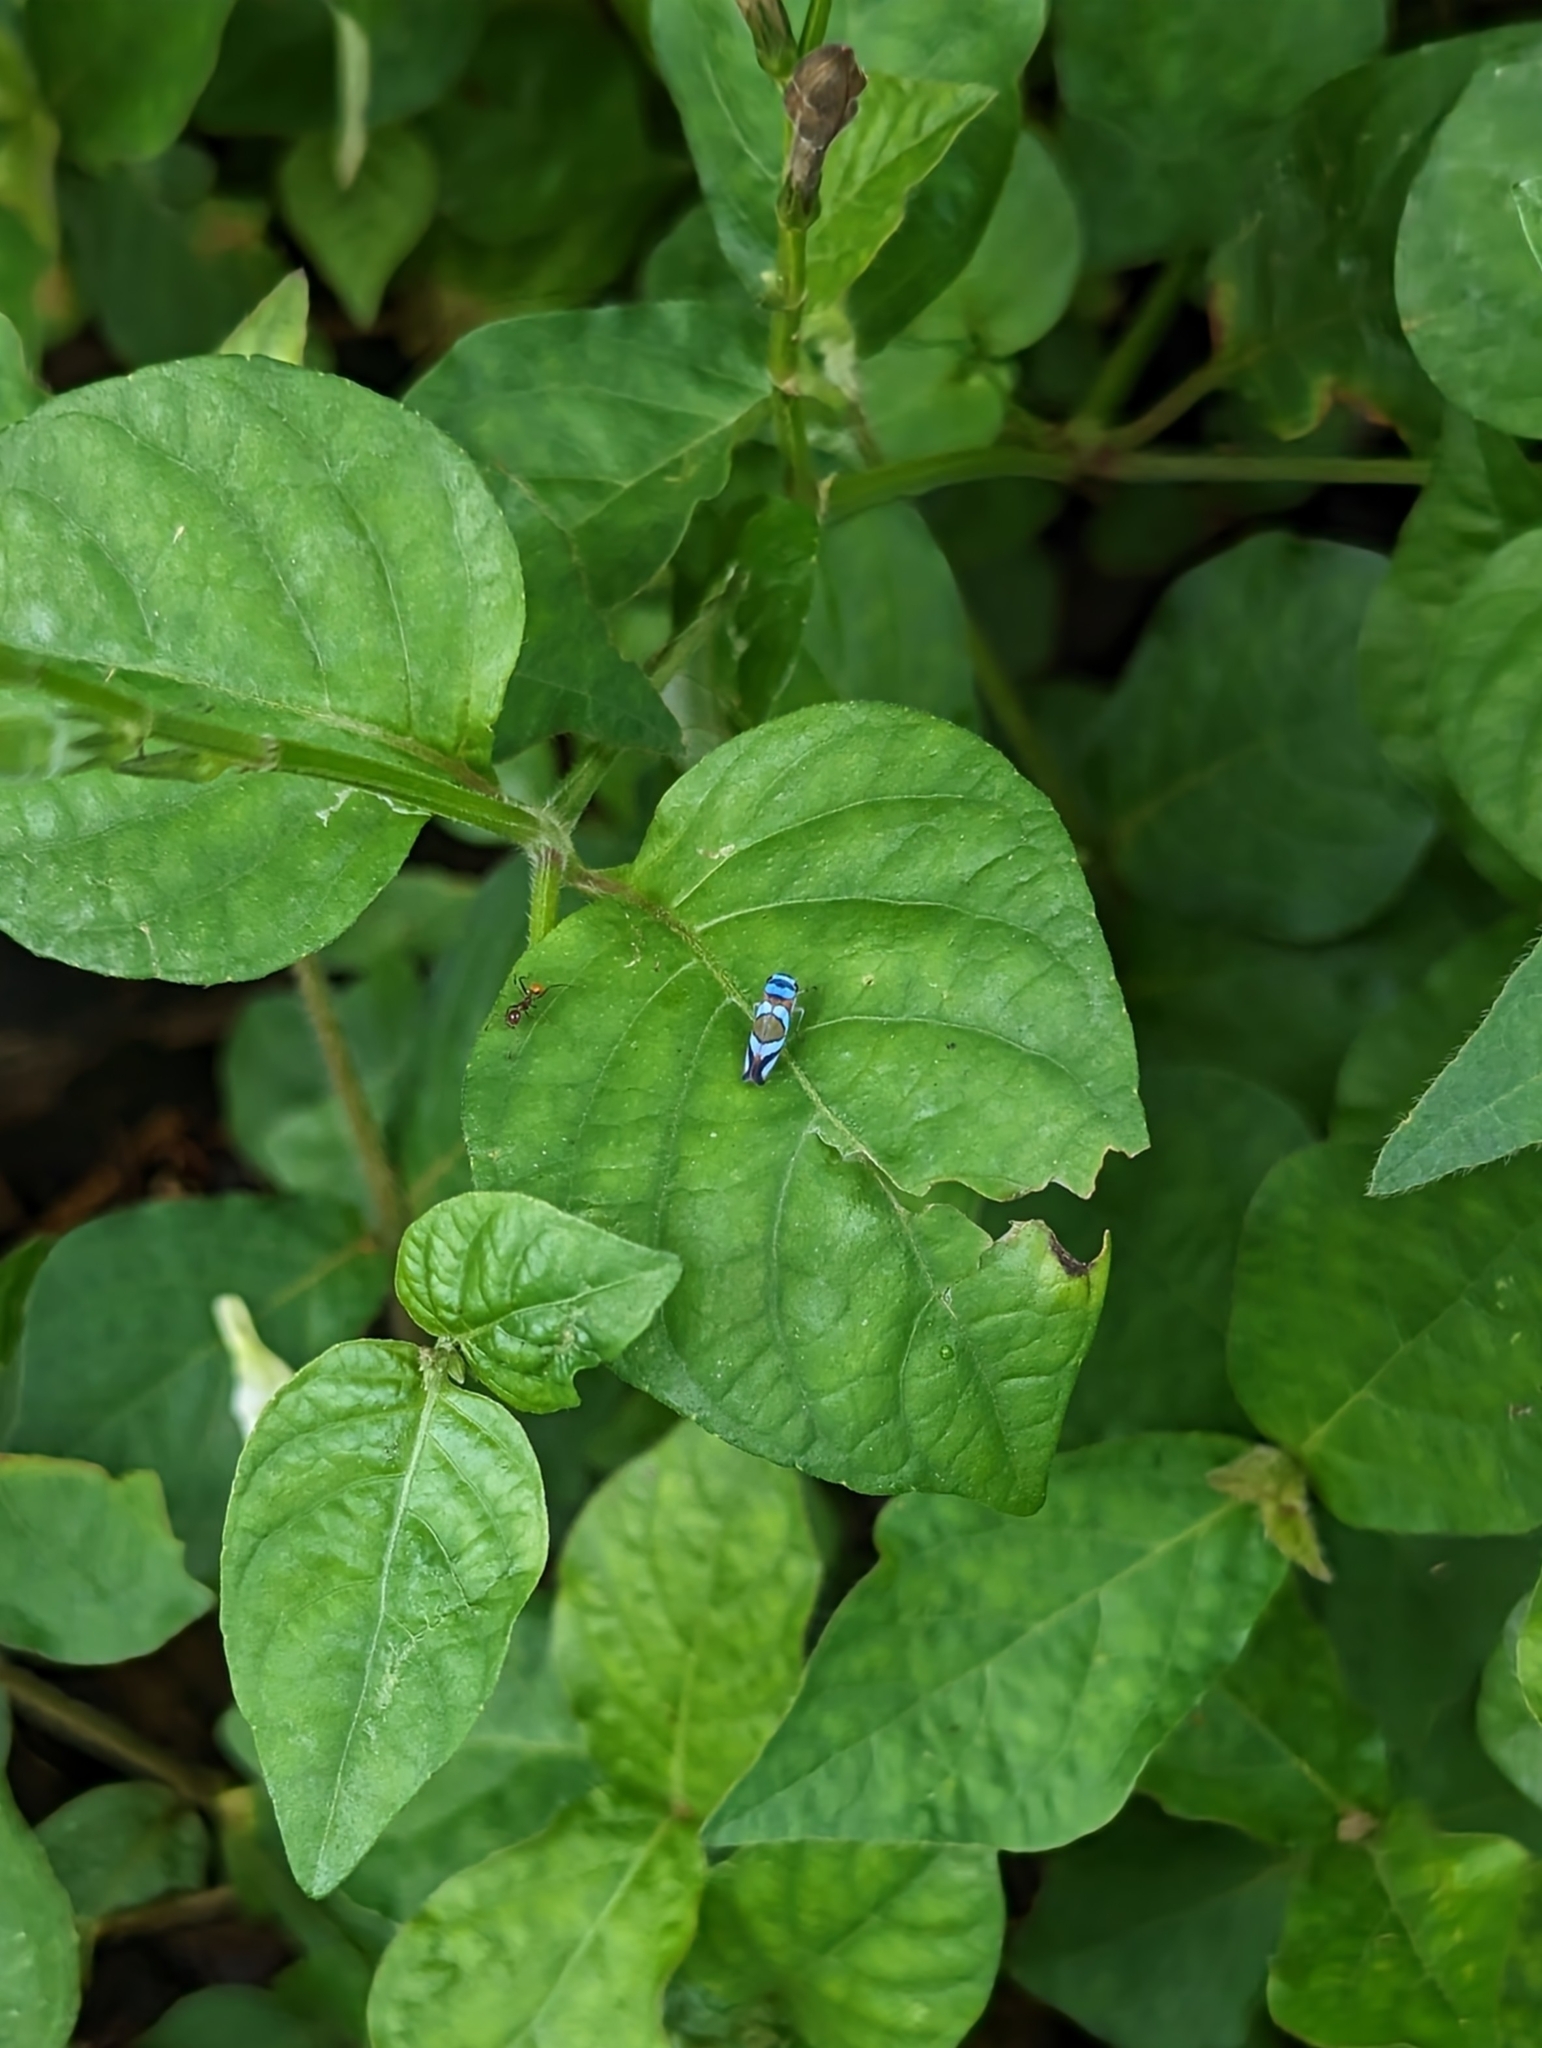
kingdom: Animalia
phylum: Arthropoda
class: Insecta
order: Hemiptera
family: Cicadellidae
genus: Macugonalia
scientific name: Macugonalia moesta
